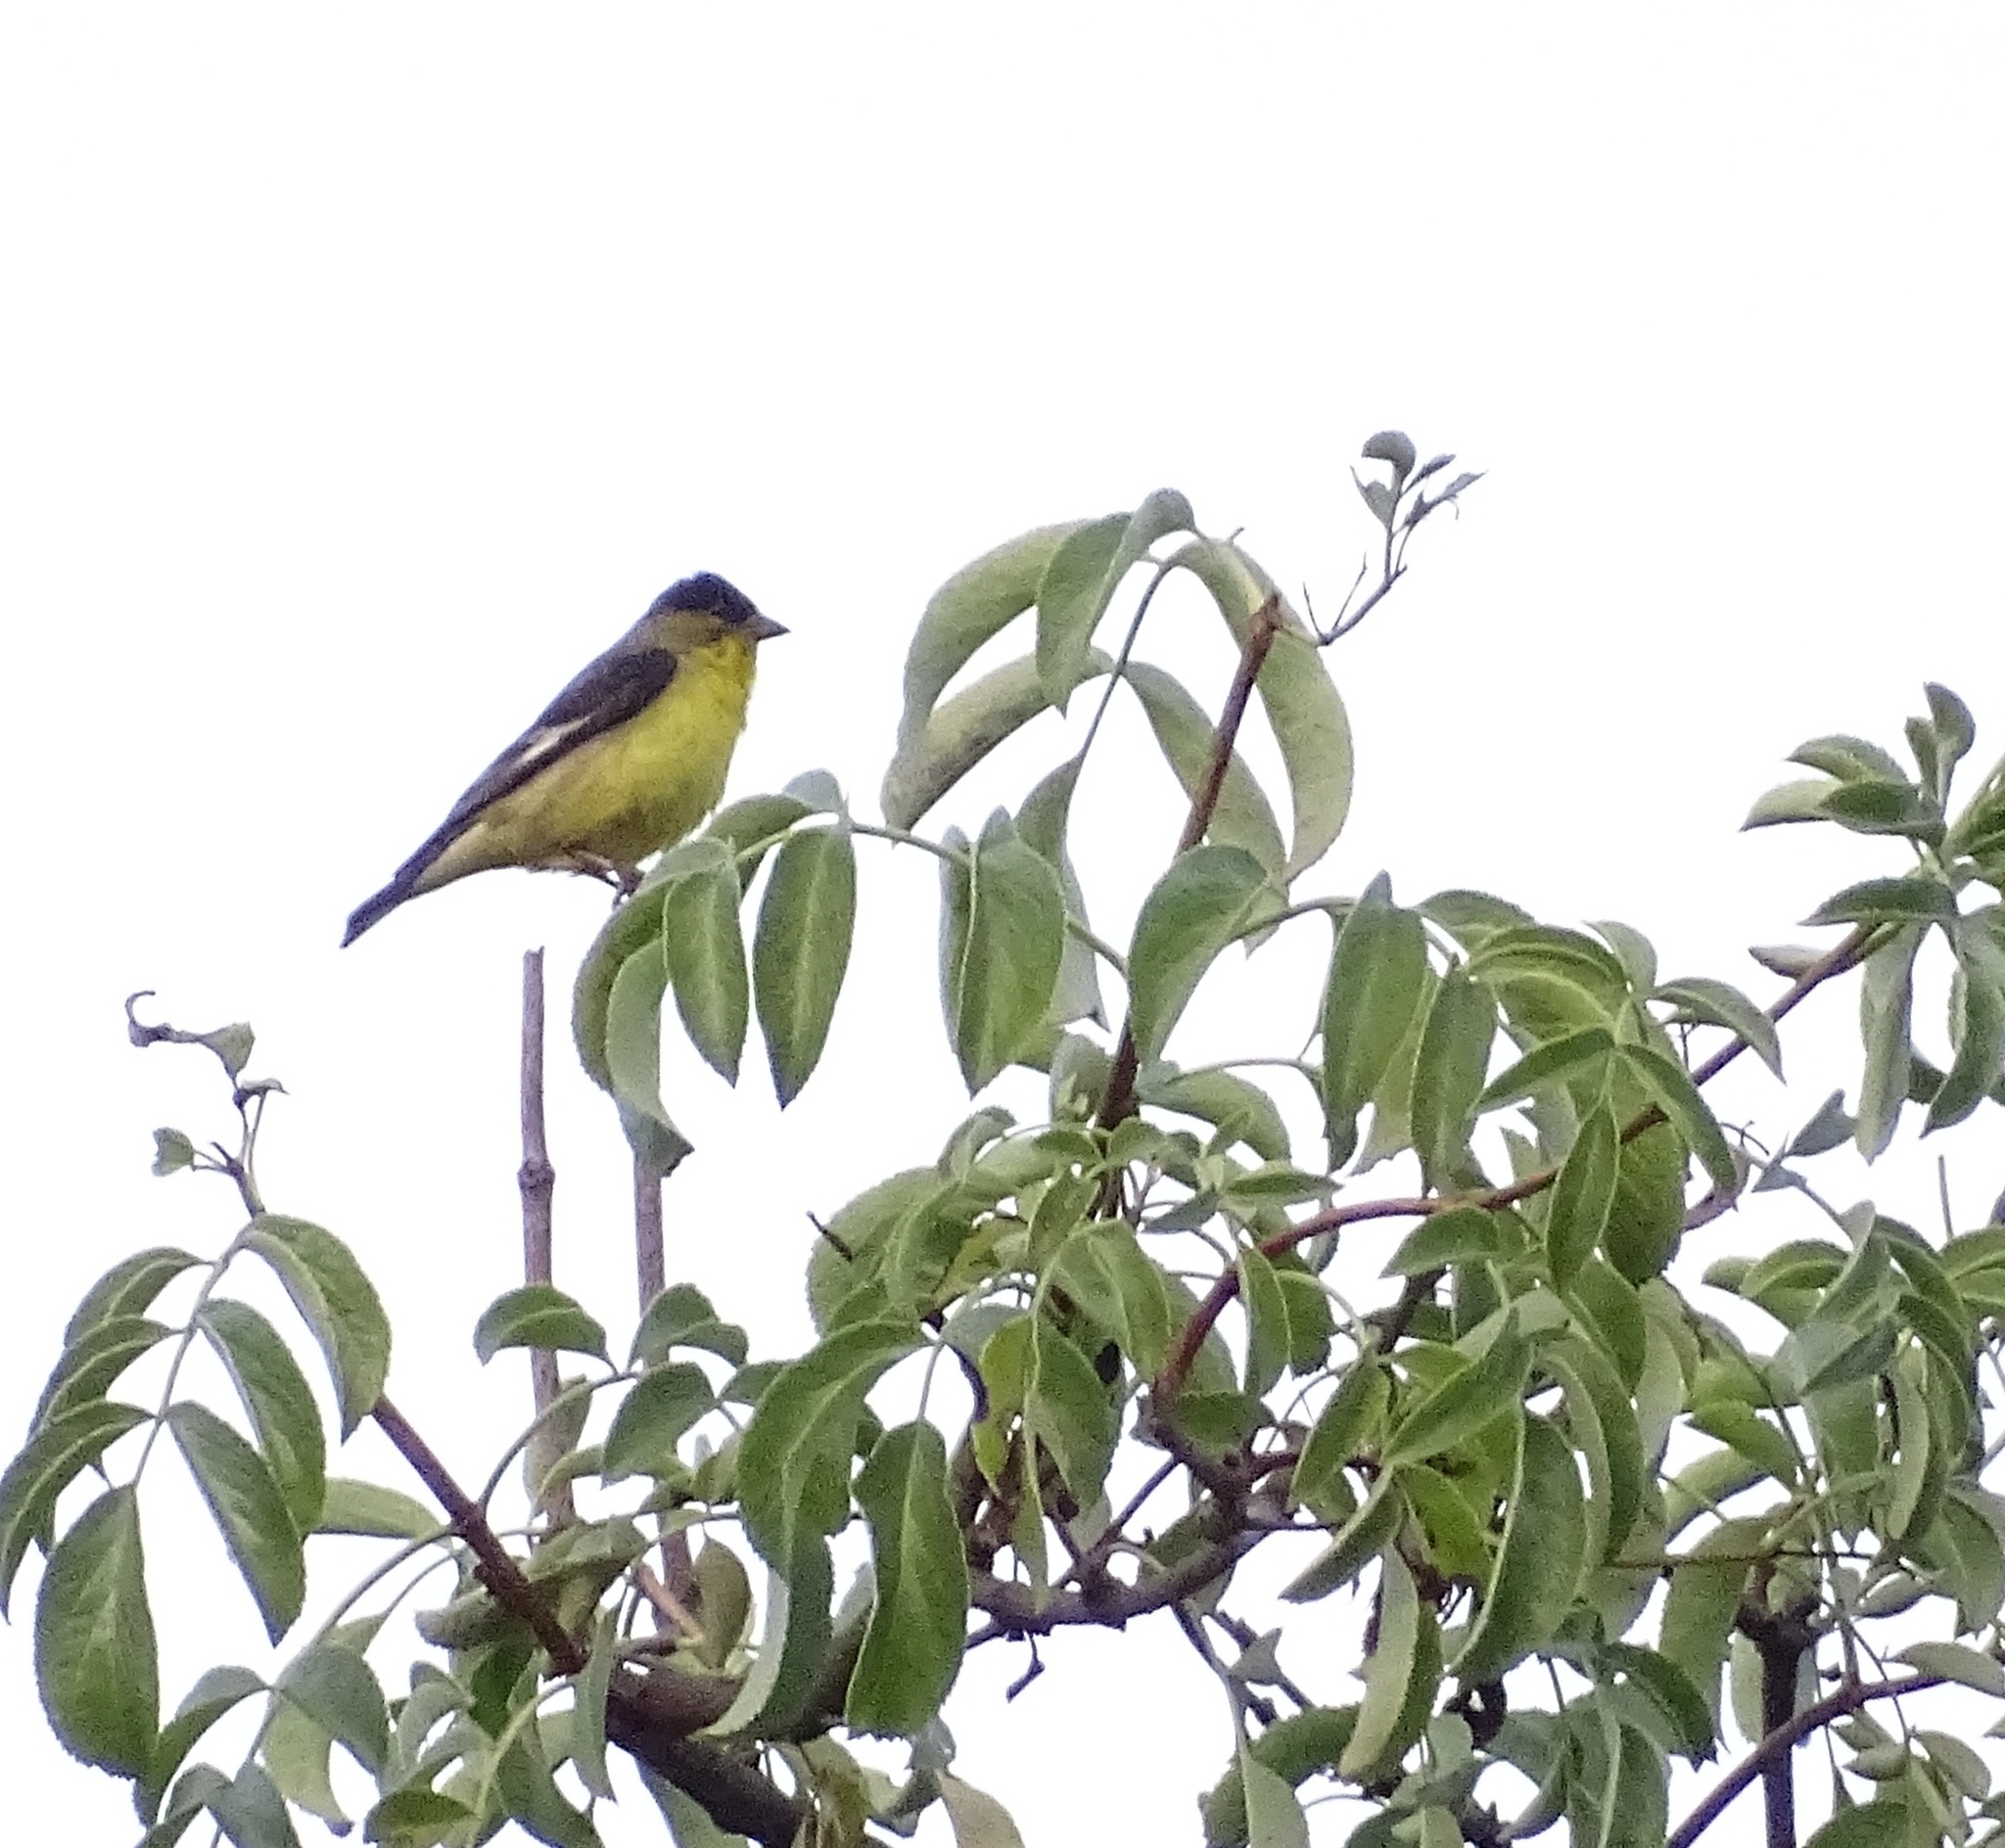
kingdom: Animalia
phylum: Chordata
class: Aves
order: Passeriformes
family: Fringillidae
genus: Spinus
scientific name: Spinus psaltria
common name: Lesser goldfinch
